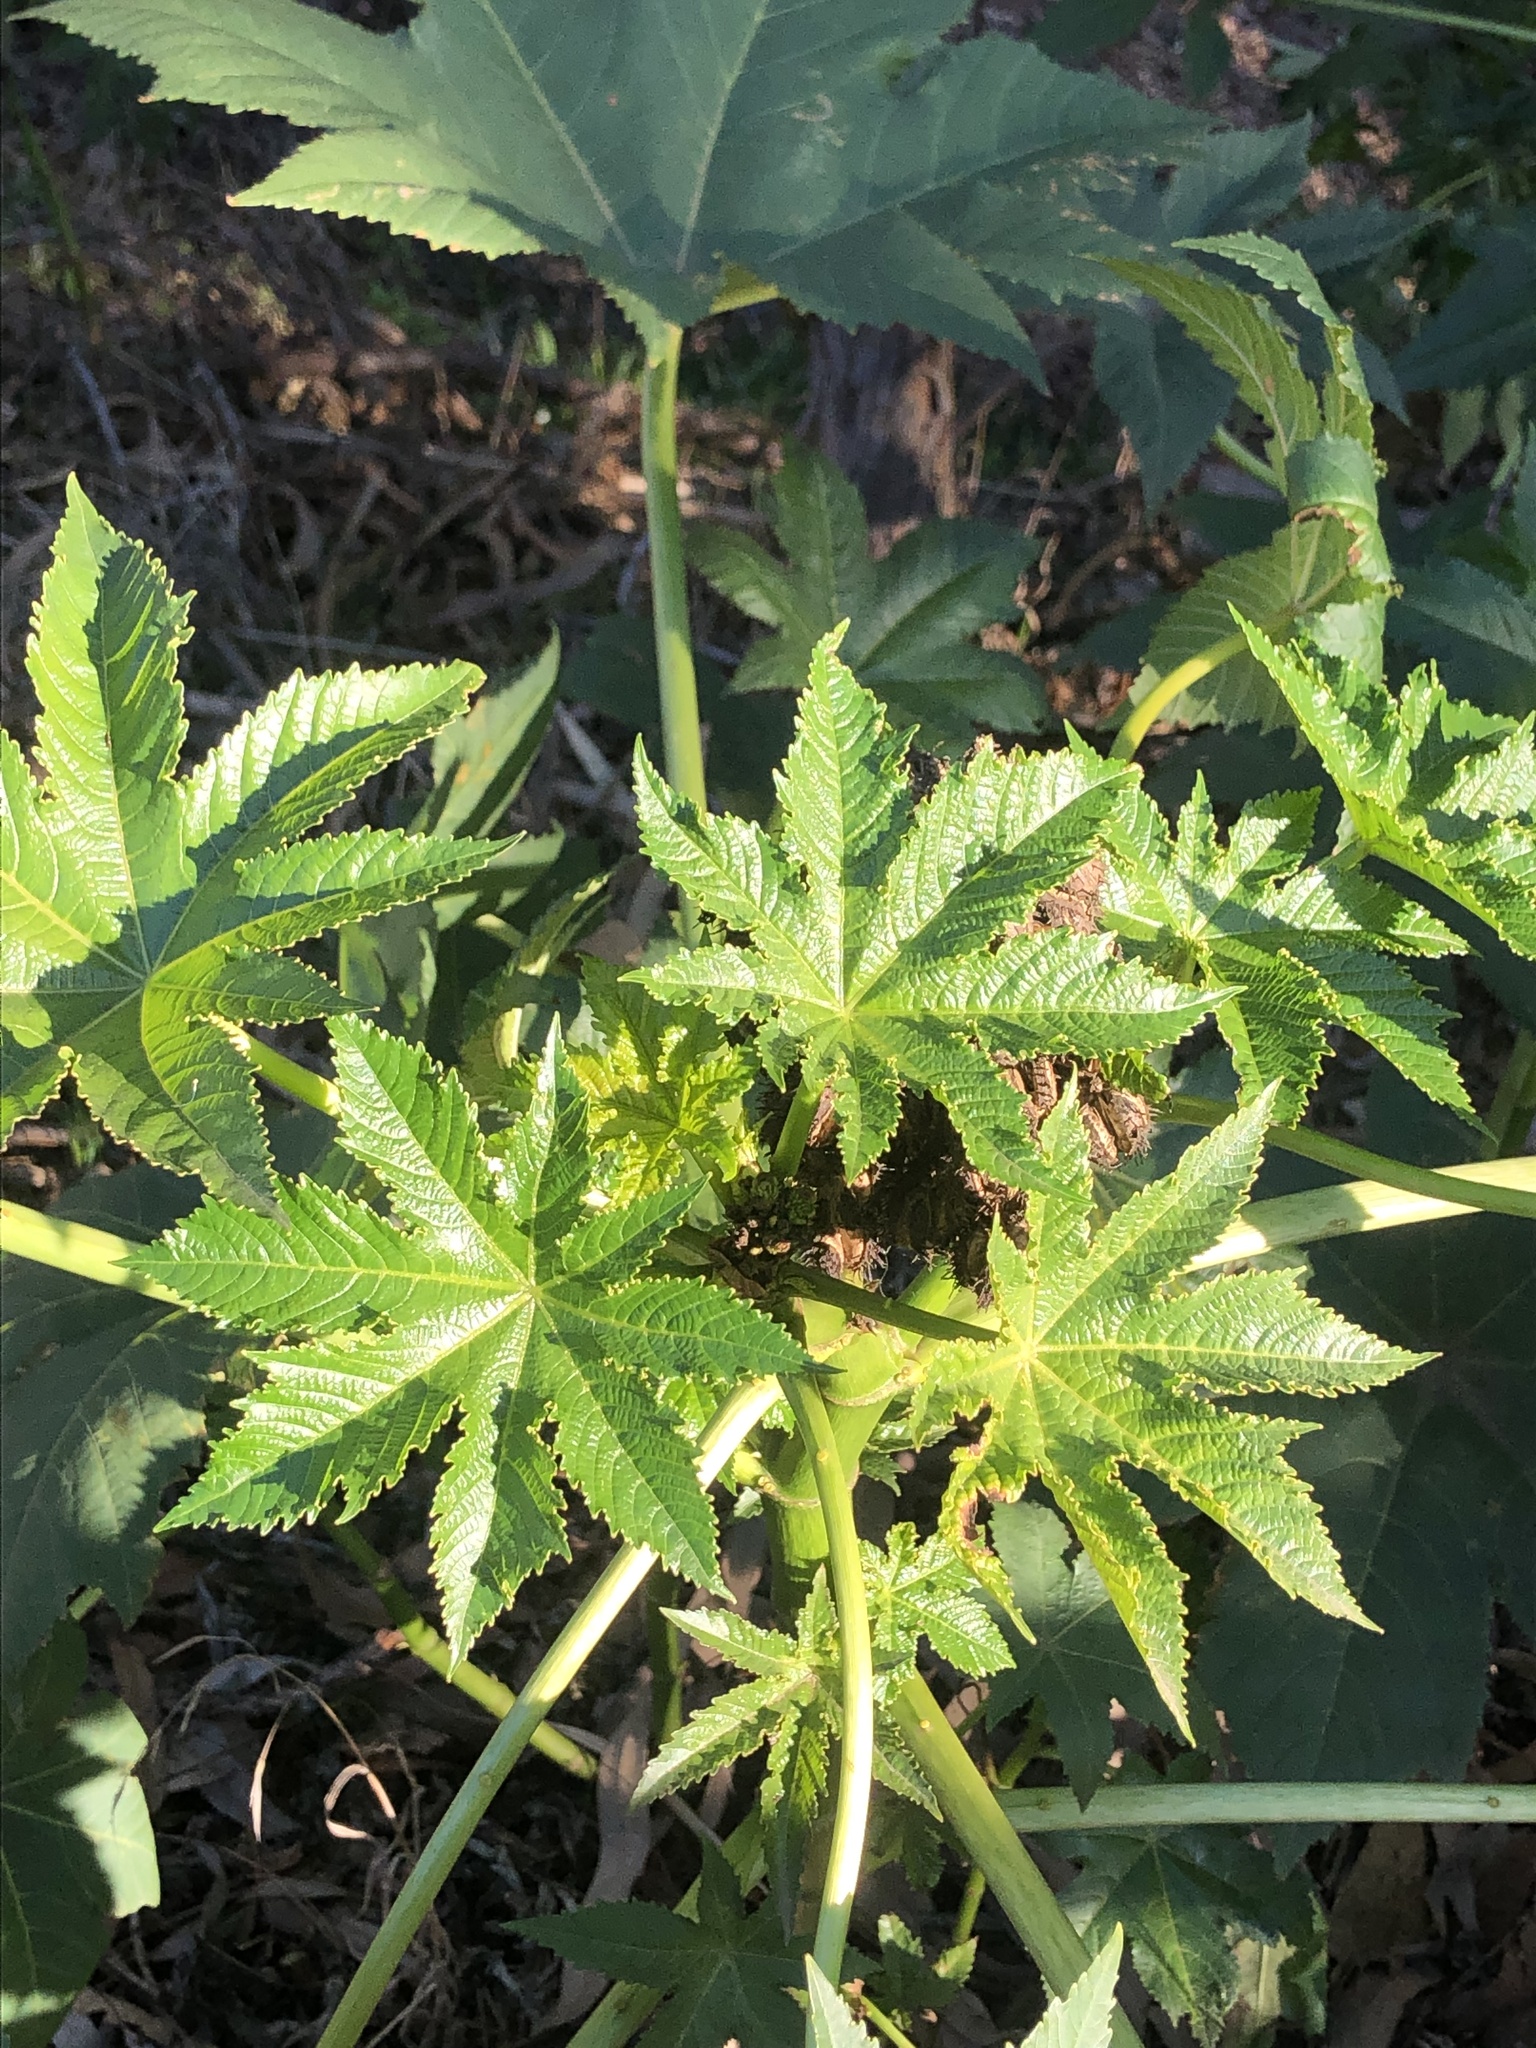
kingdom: Plantae
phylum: Tracheophyta
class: Magnoliopsida
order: Malpighiales
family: Euphorbiaceae
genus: Ricinus
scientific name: Ricinus communis
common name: Castor-oil-plant
